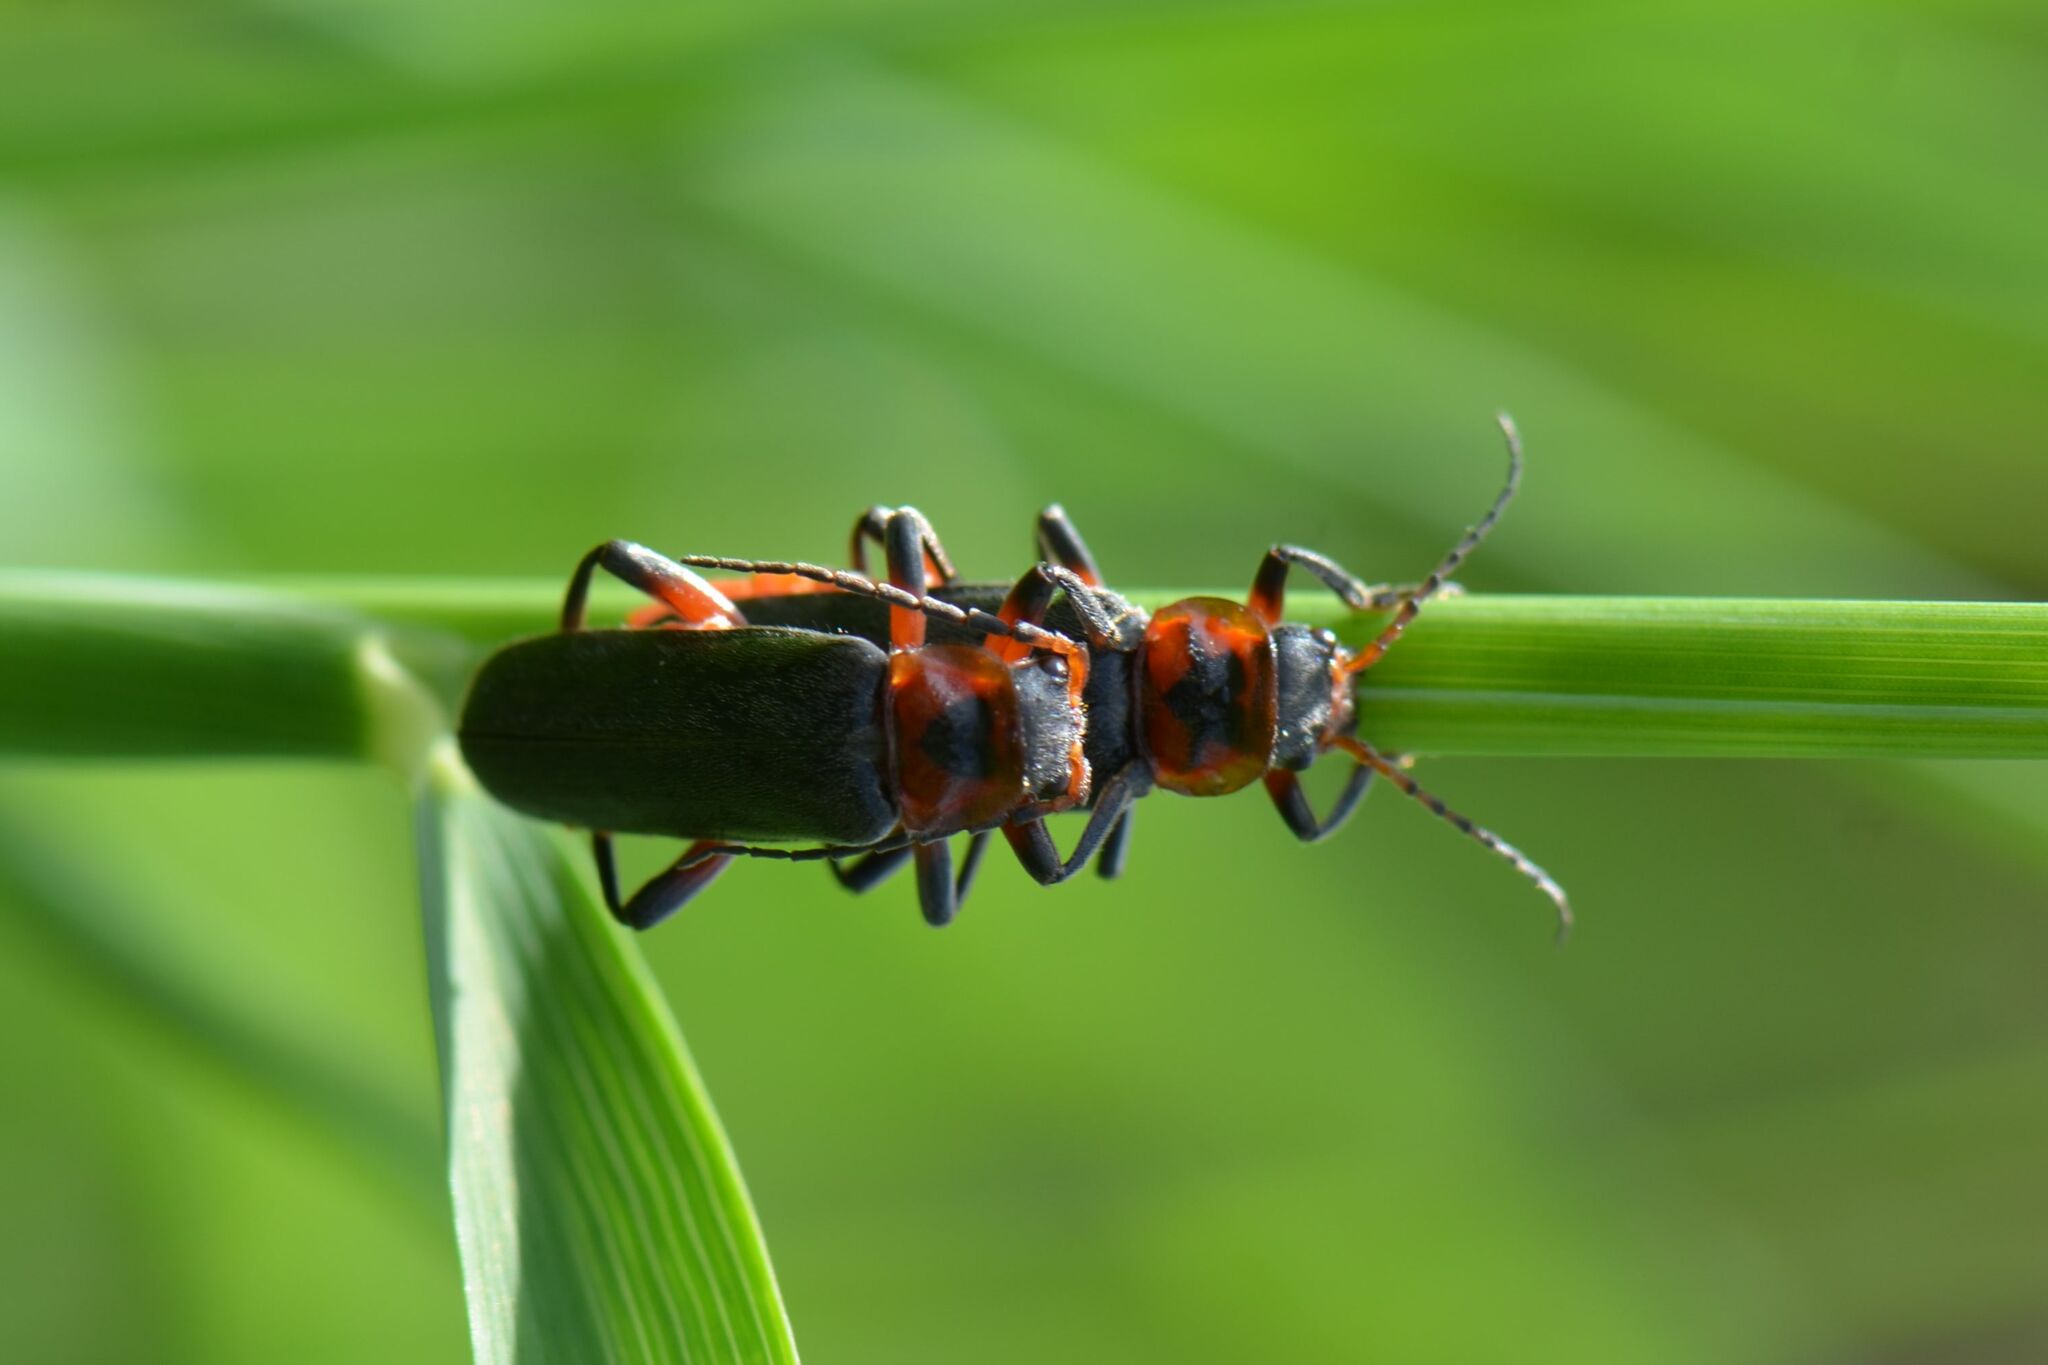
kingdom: Animalia
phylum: Arthropoda
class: Insecta
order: Coleoptera
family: Cantharidae
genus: Cantharis
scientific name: Cantharis rustica
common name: Soldier beetle
